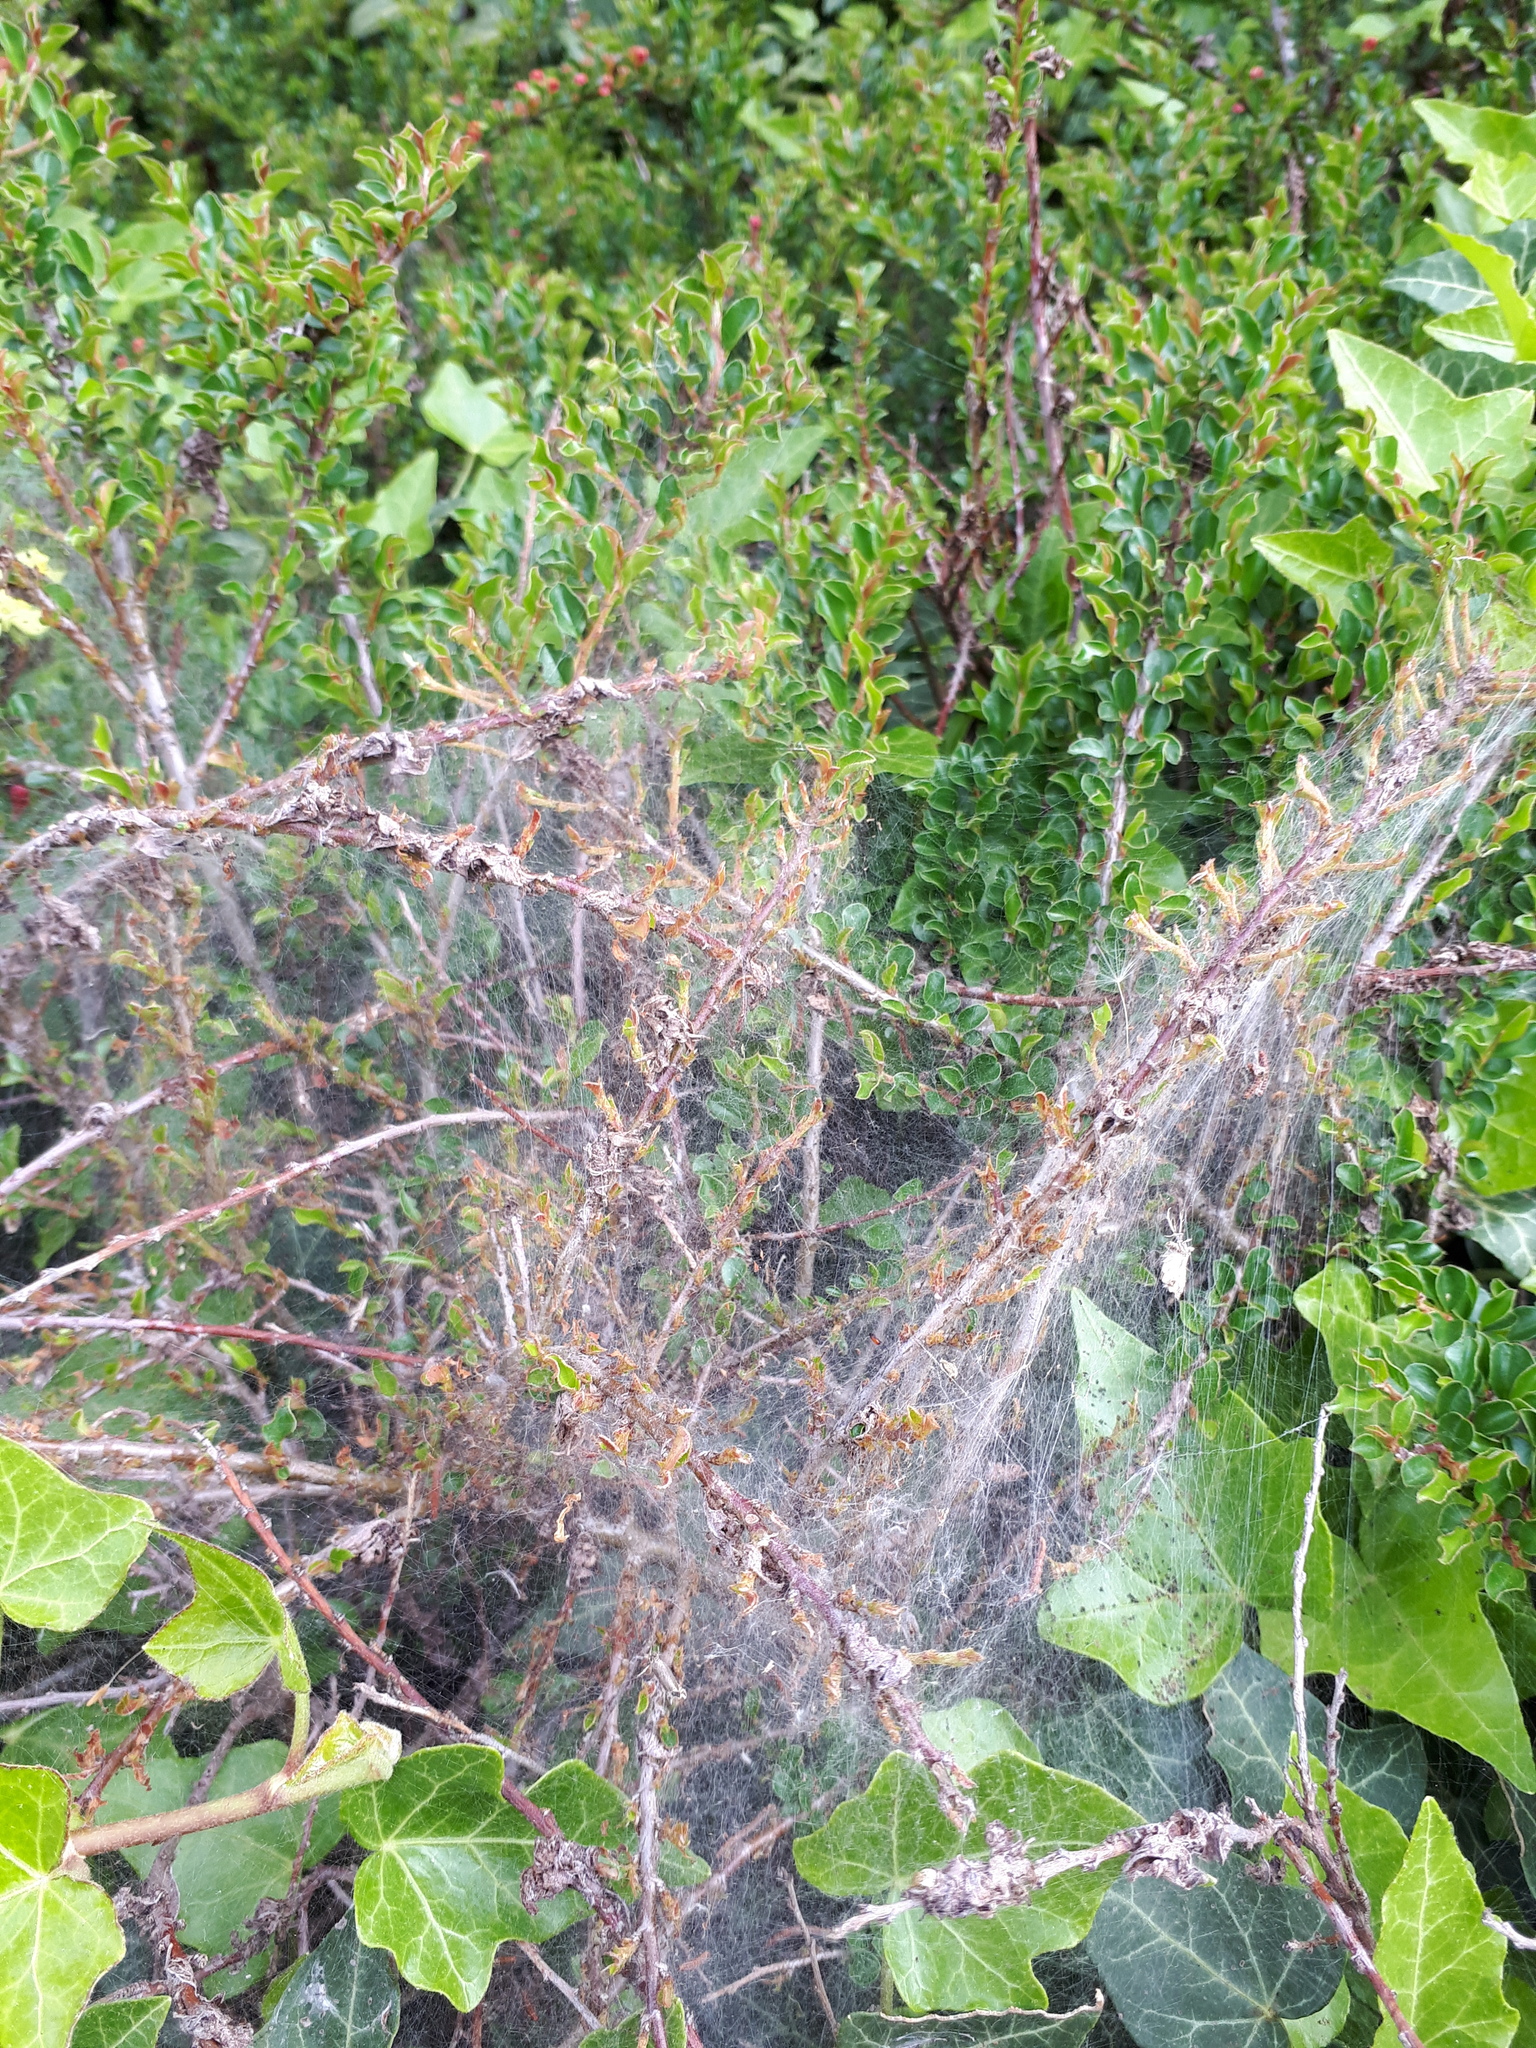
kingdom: Animalia
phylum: Arthropoda
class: Insecta
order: Lepidoptera
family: Yponomeutidae
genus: Scythropia
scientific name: Scythropia crataegella
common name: Hawthorn moth
